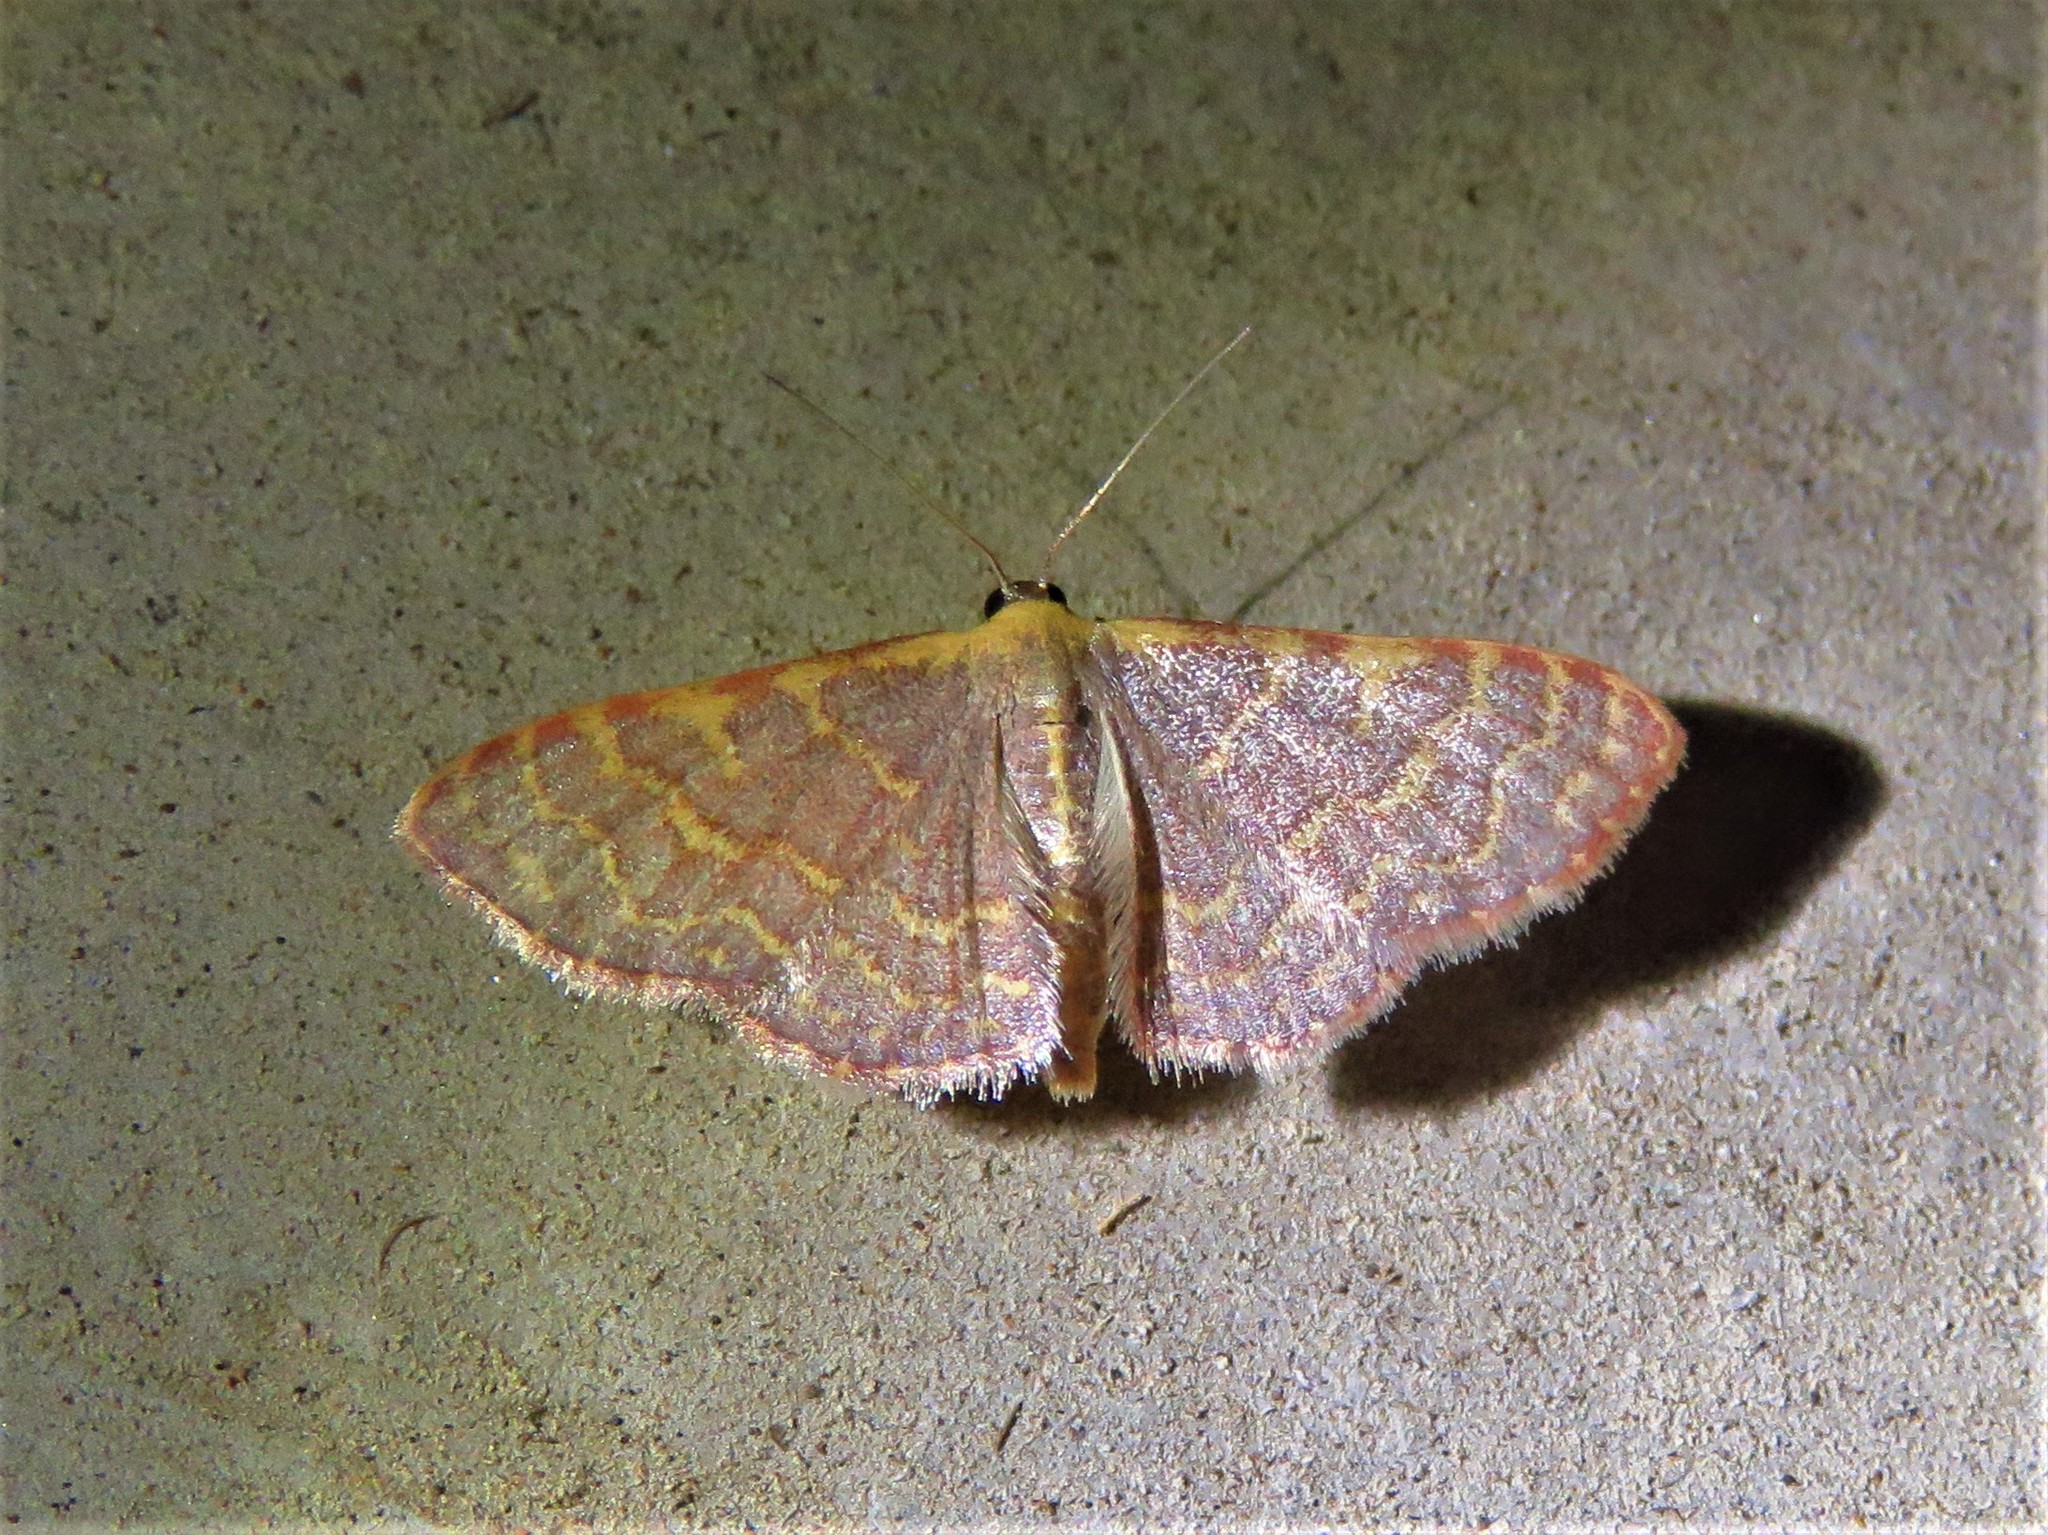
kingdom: Animalia
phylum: Arthropoda
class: Insecta
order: Lepidoptera
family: Geometridae
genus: Leptostales
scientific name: Leptostales pannaria
